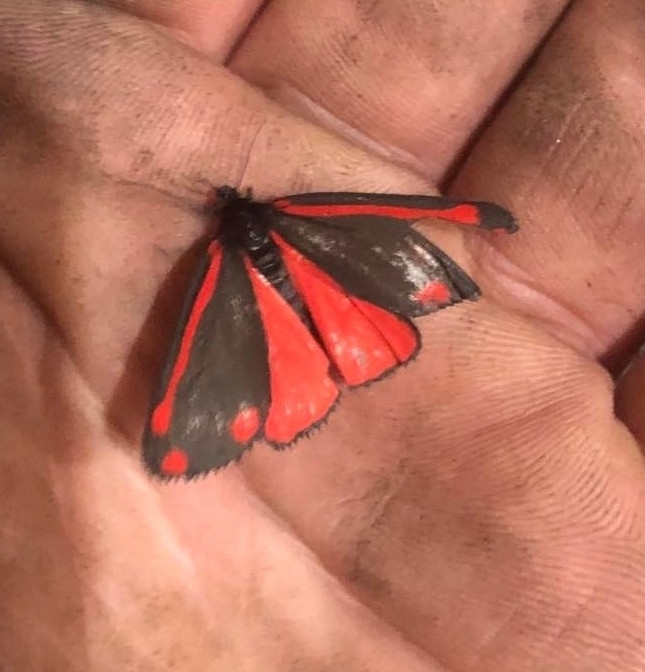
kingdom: Animalia
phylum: Arthropoda
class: Insecta
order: Lepidoptera
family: Erebidae
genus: Tyria
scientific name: Tyria jacobaeae
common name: Cinnabar
